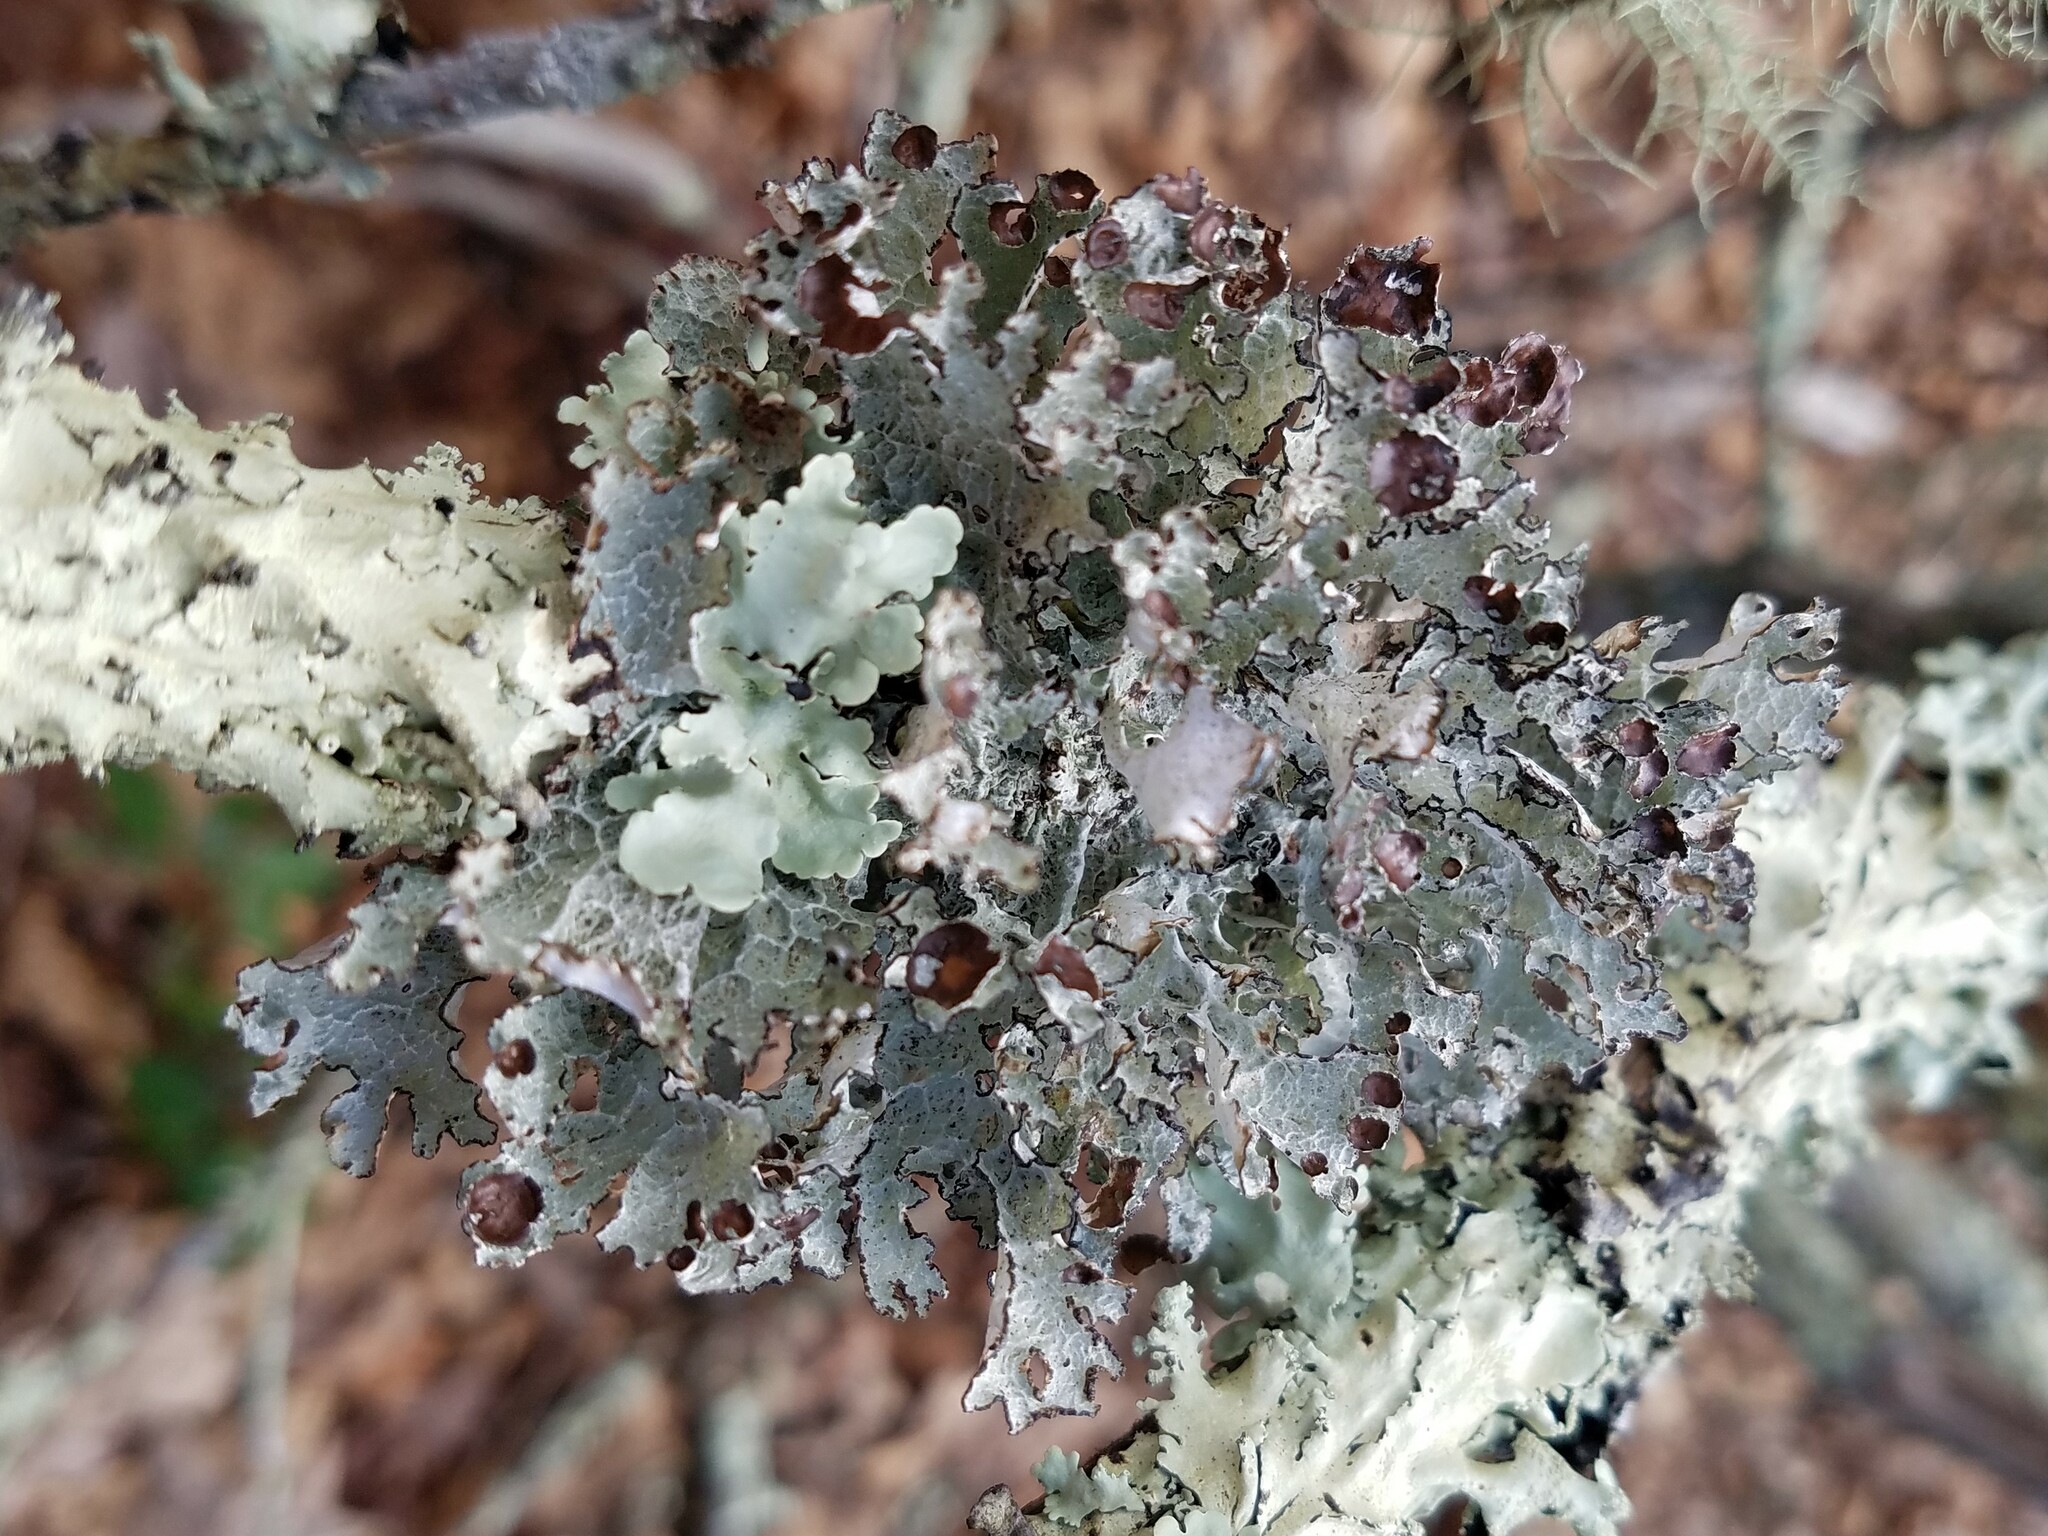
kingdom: Fungi
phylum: Ascomycota
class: Lecanoromycetes
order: Lecanorales
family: Parmeliaceae
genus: Platismatia
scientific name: Platismatia tuckermanii
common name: Crumpled rag lichen
